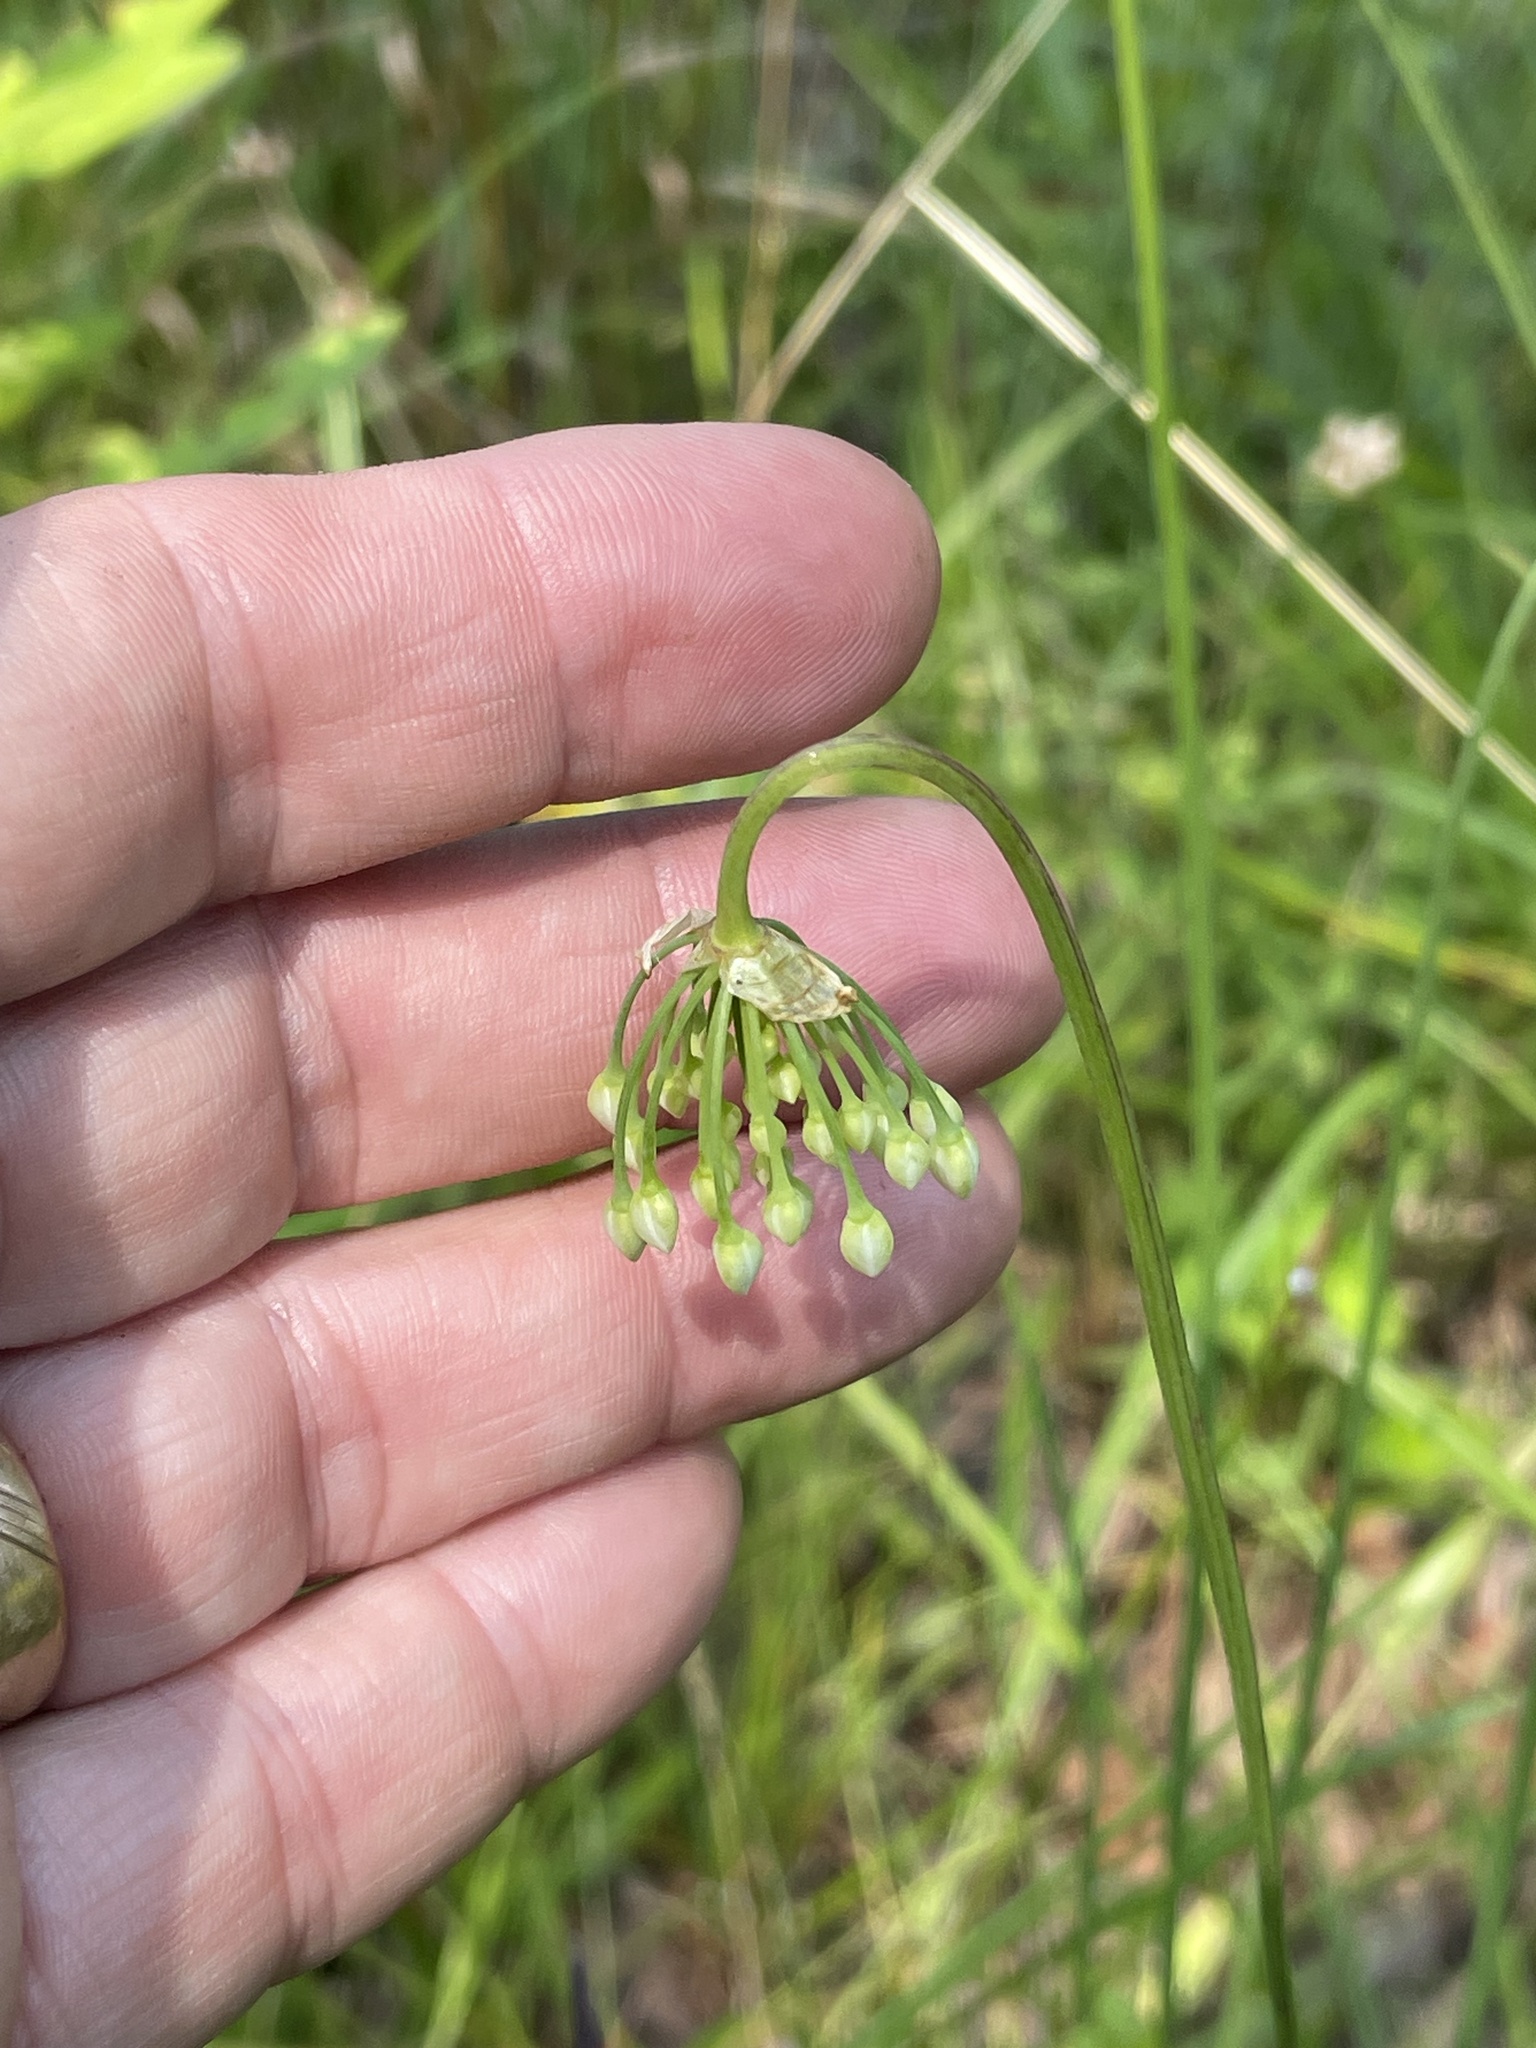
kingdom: Plantae
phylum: Tracheophyta
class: Liliopsida
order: Asparagales
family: Amaryllidaceae
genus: Allium
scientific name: Allium cernuum
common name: Nodding onion
